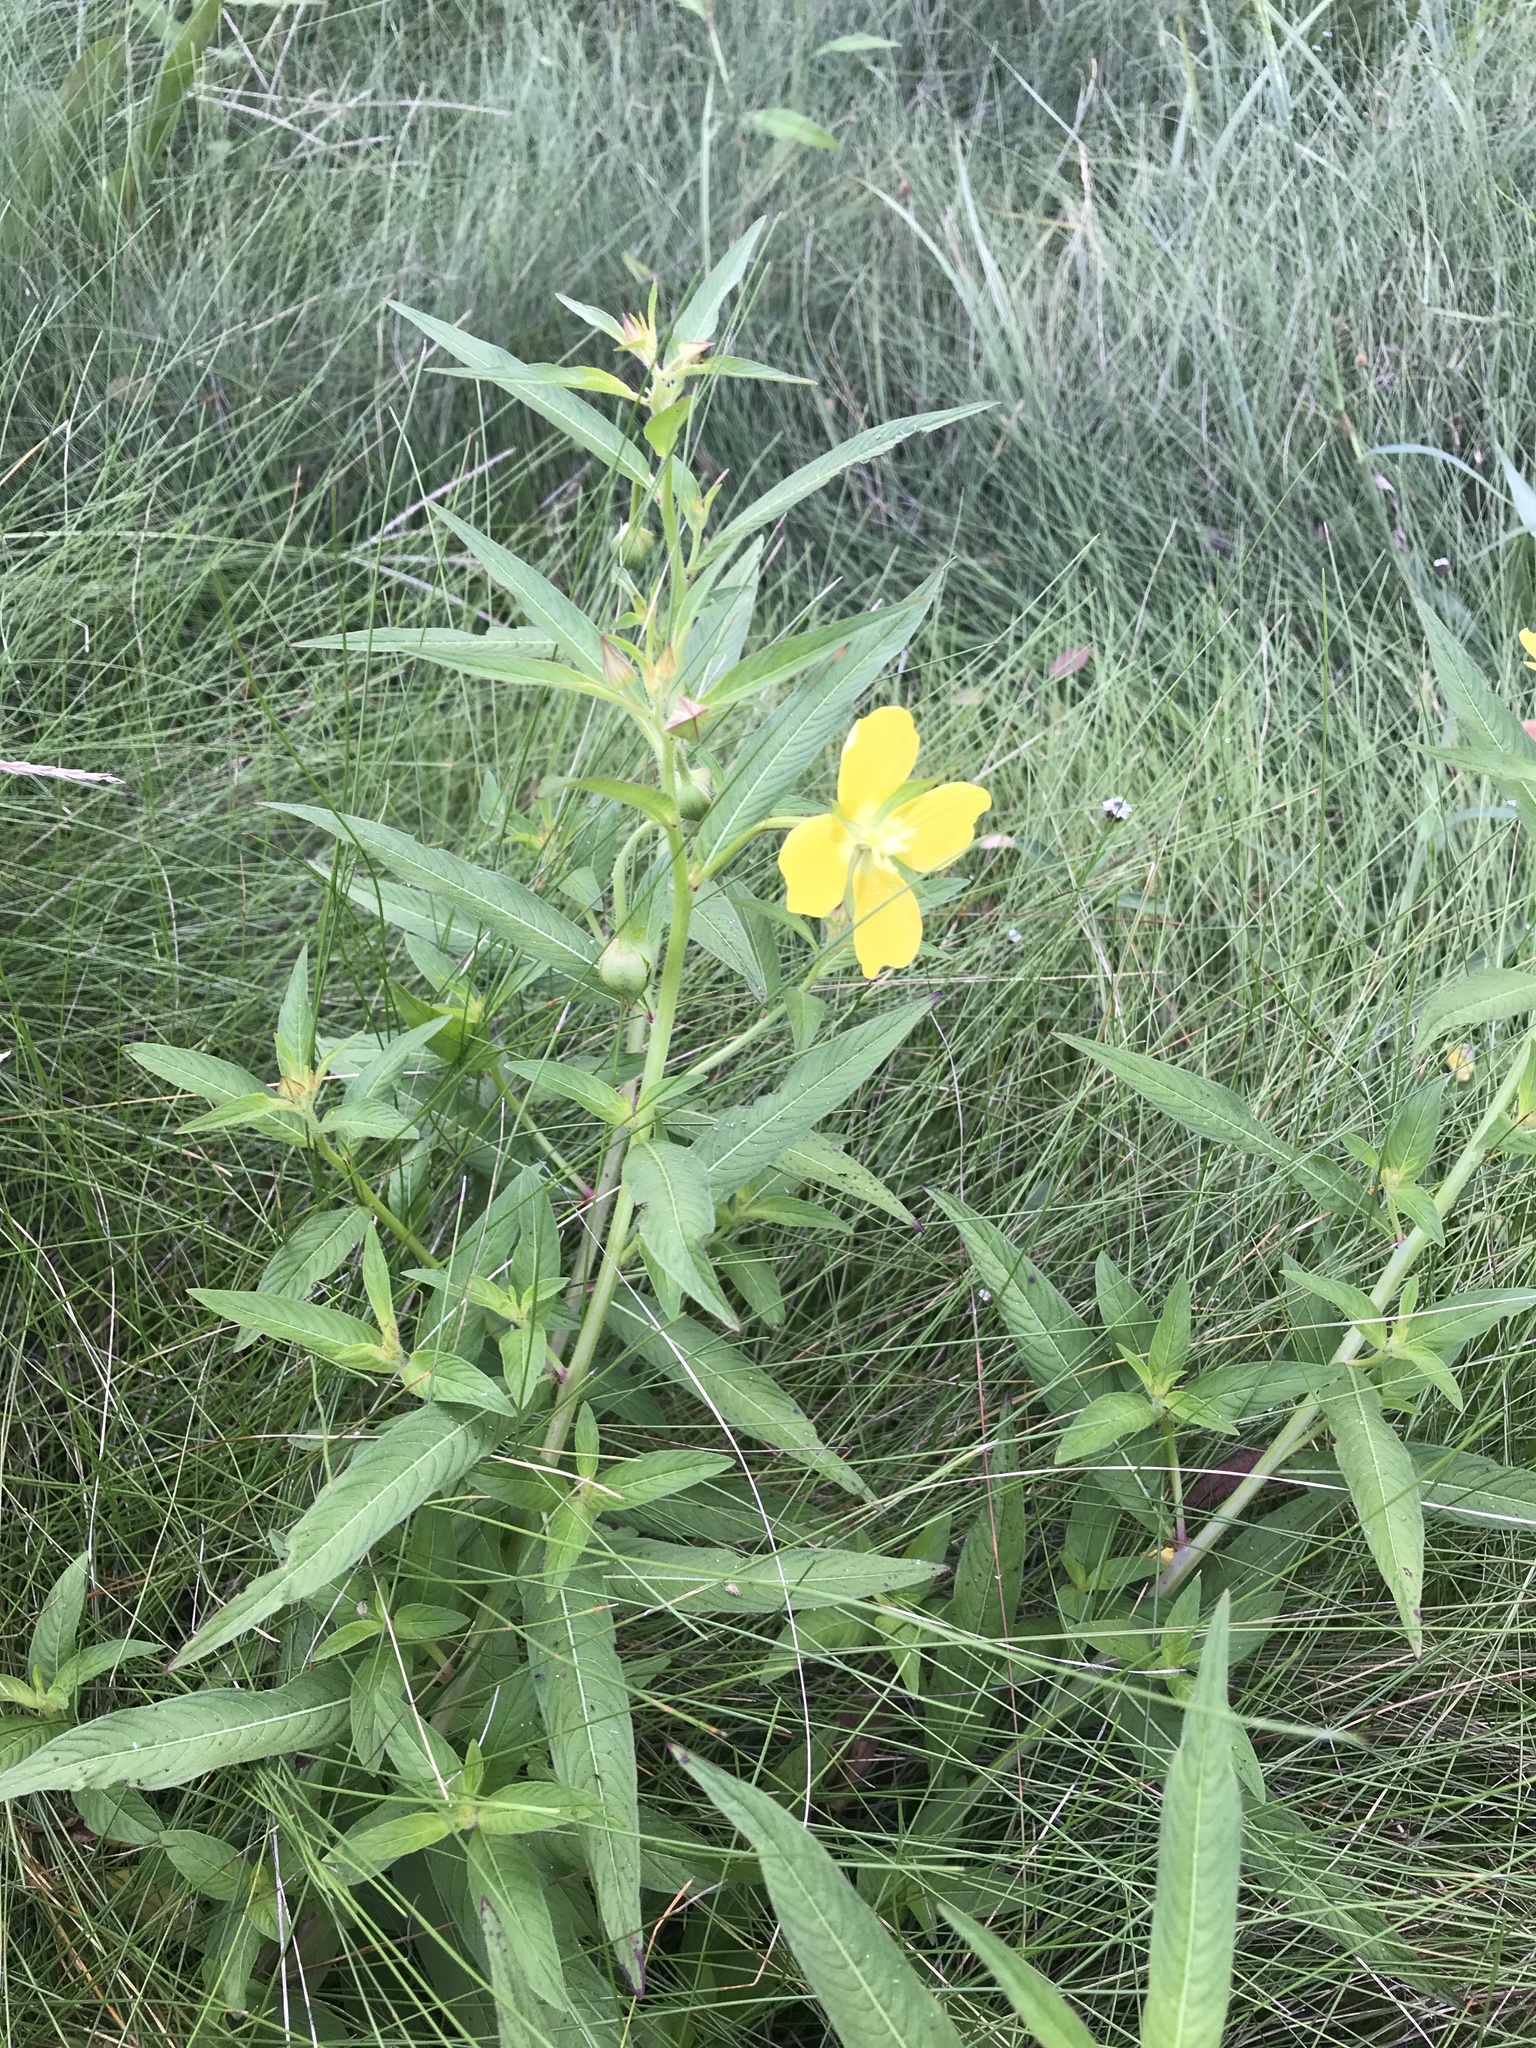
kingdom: Plantae
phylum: Tracheophyta
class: Magnoliopsida
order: Myrtales
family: Onagraceae
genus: Ludwigia
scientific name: Ludwigia octovalvis
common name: Water-primrose
